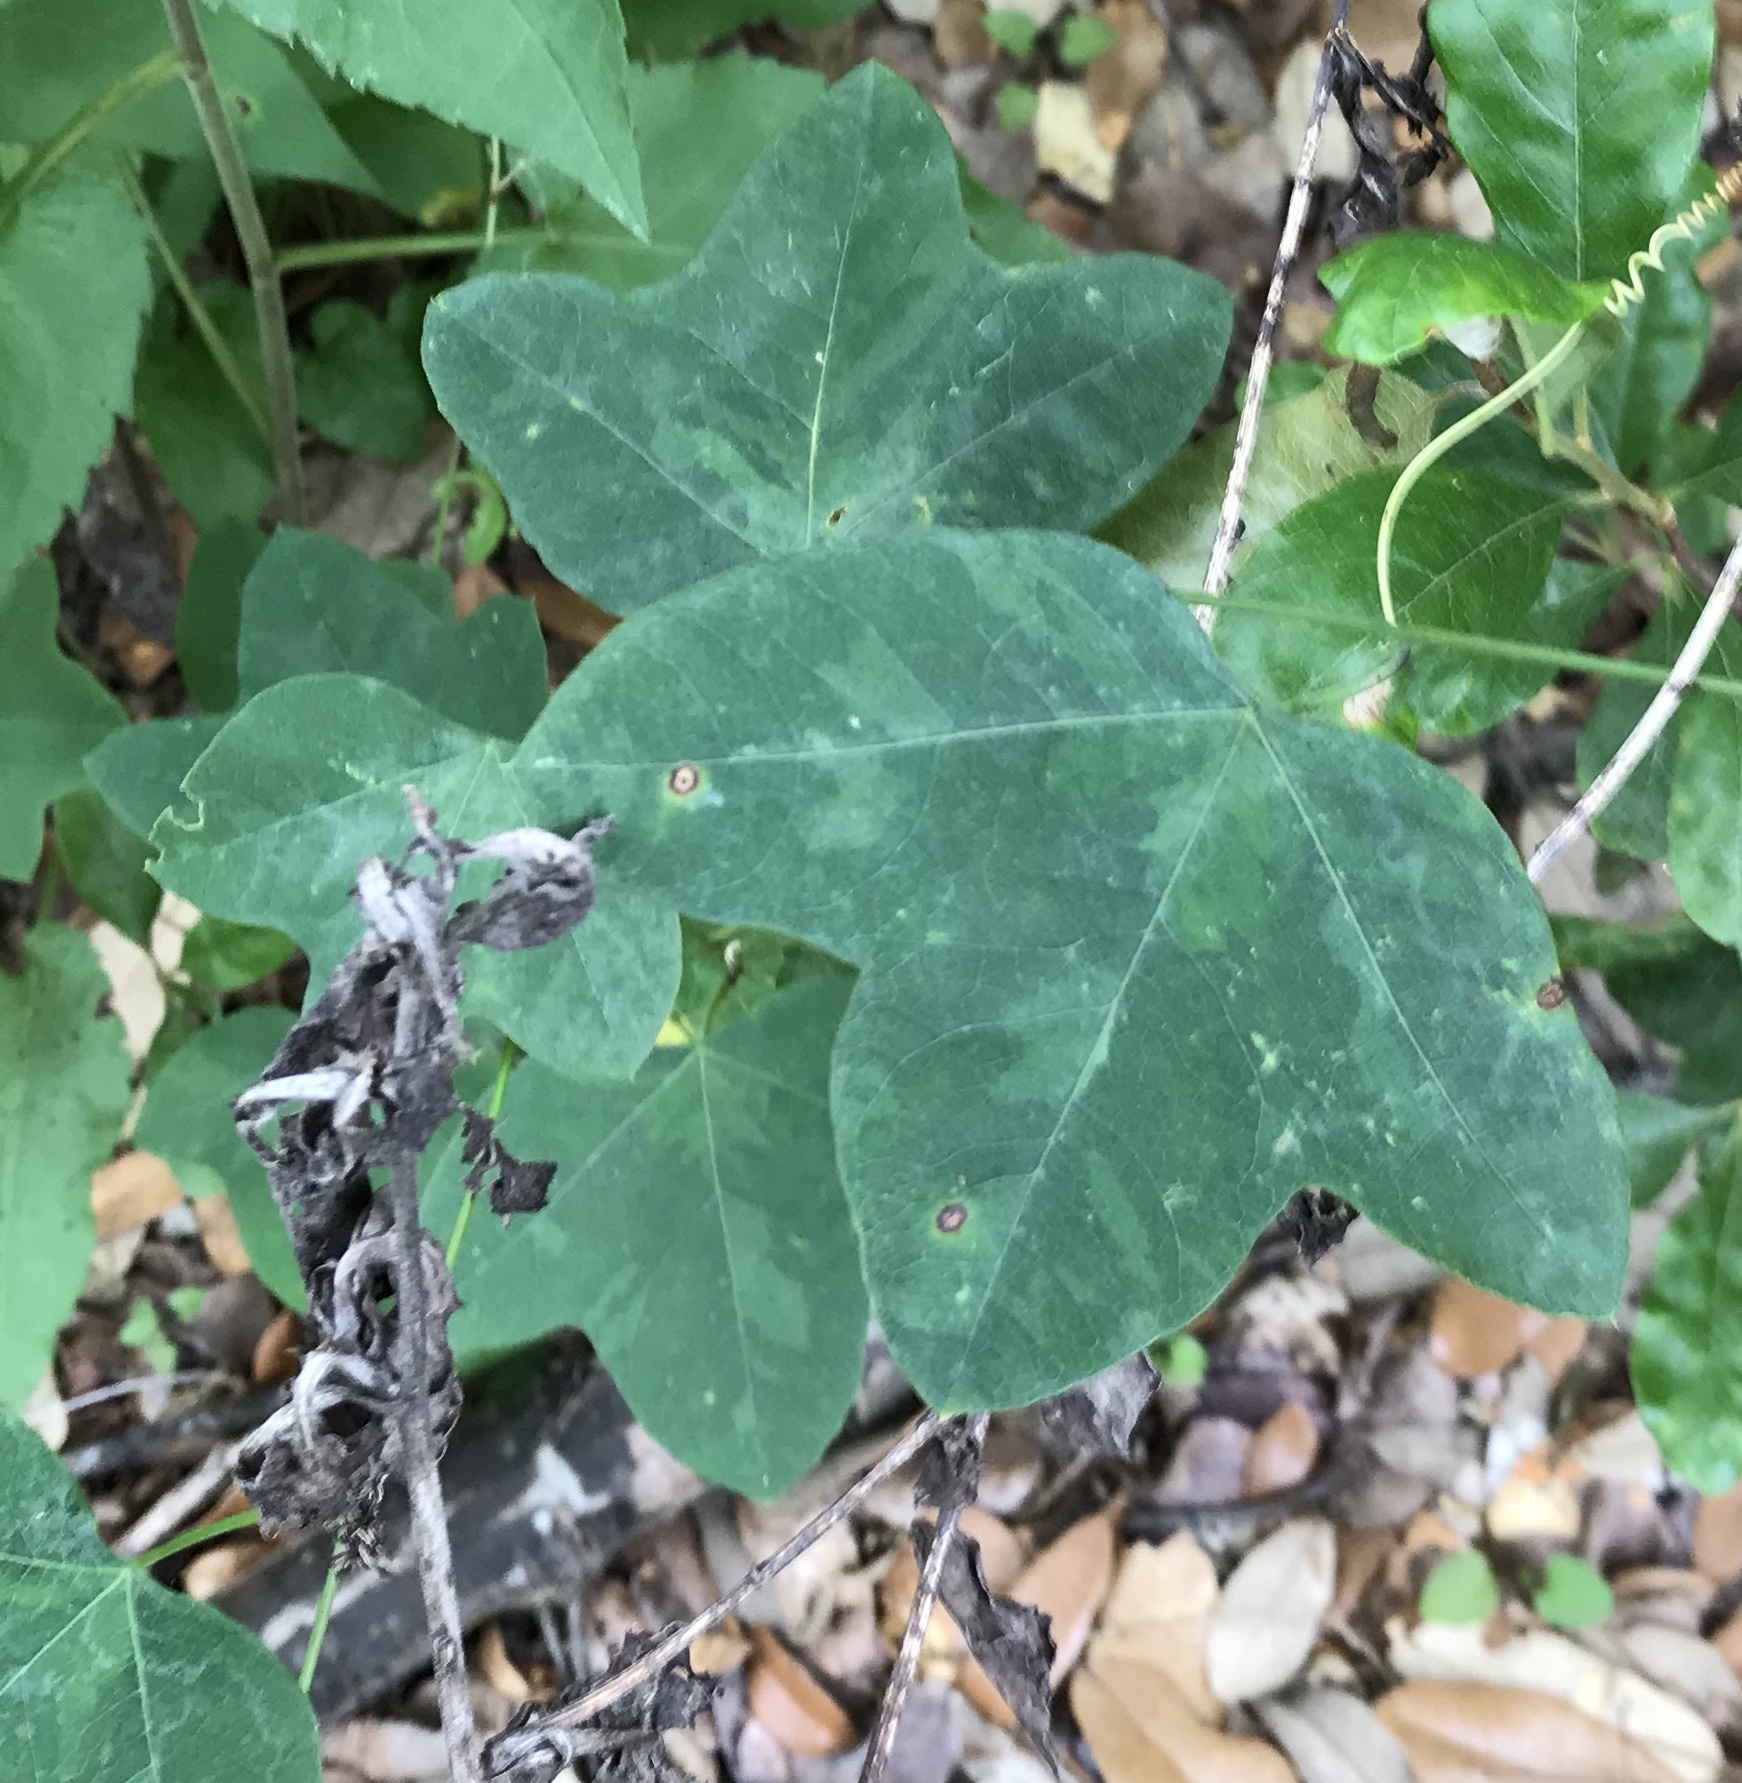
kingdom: Plantae
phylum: Tracheophyta
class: Magnoliopsida
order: Malpighiales
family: Passifloraceae
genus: Passiflora
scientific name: Passiflora lutea
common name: Yellow passionflower
